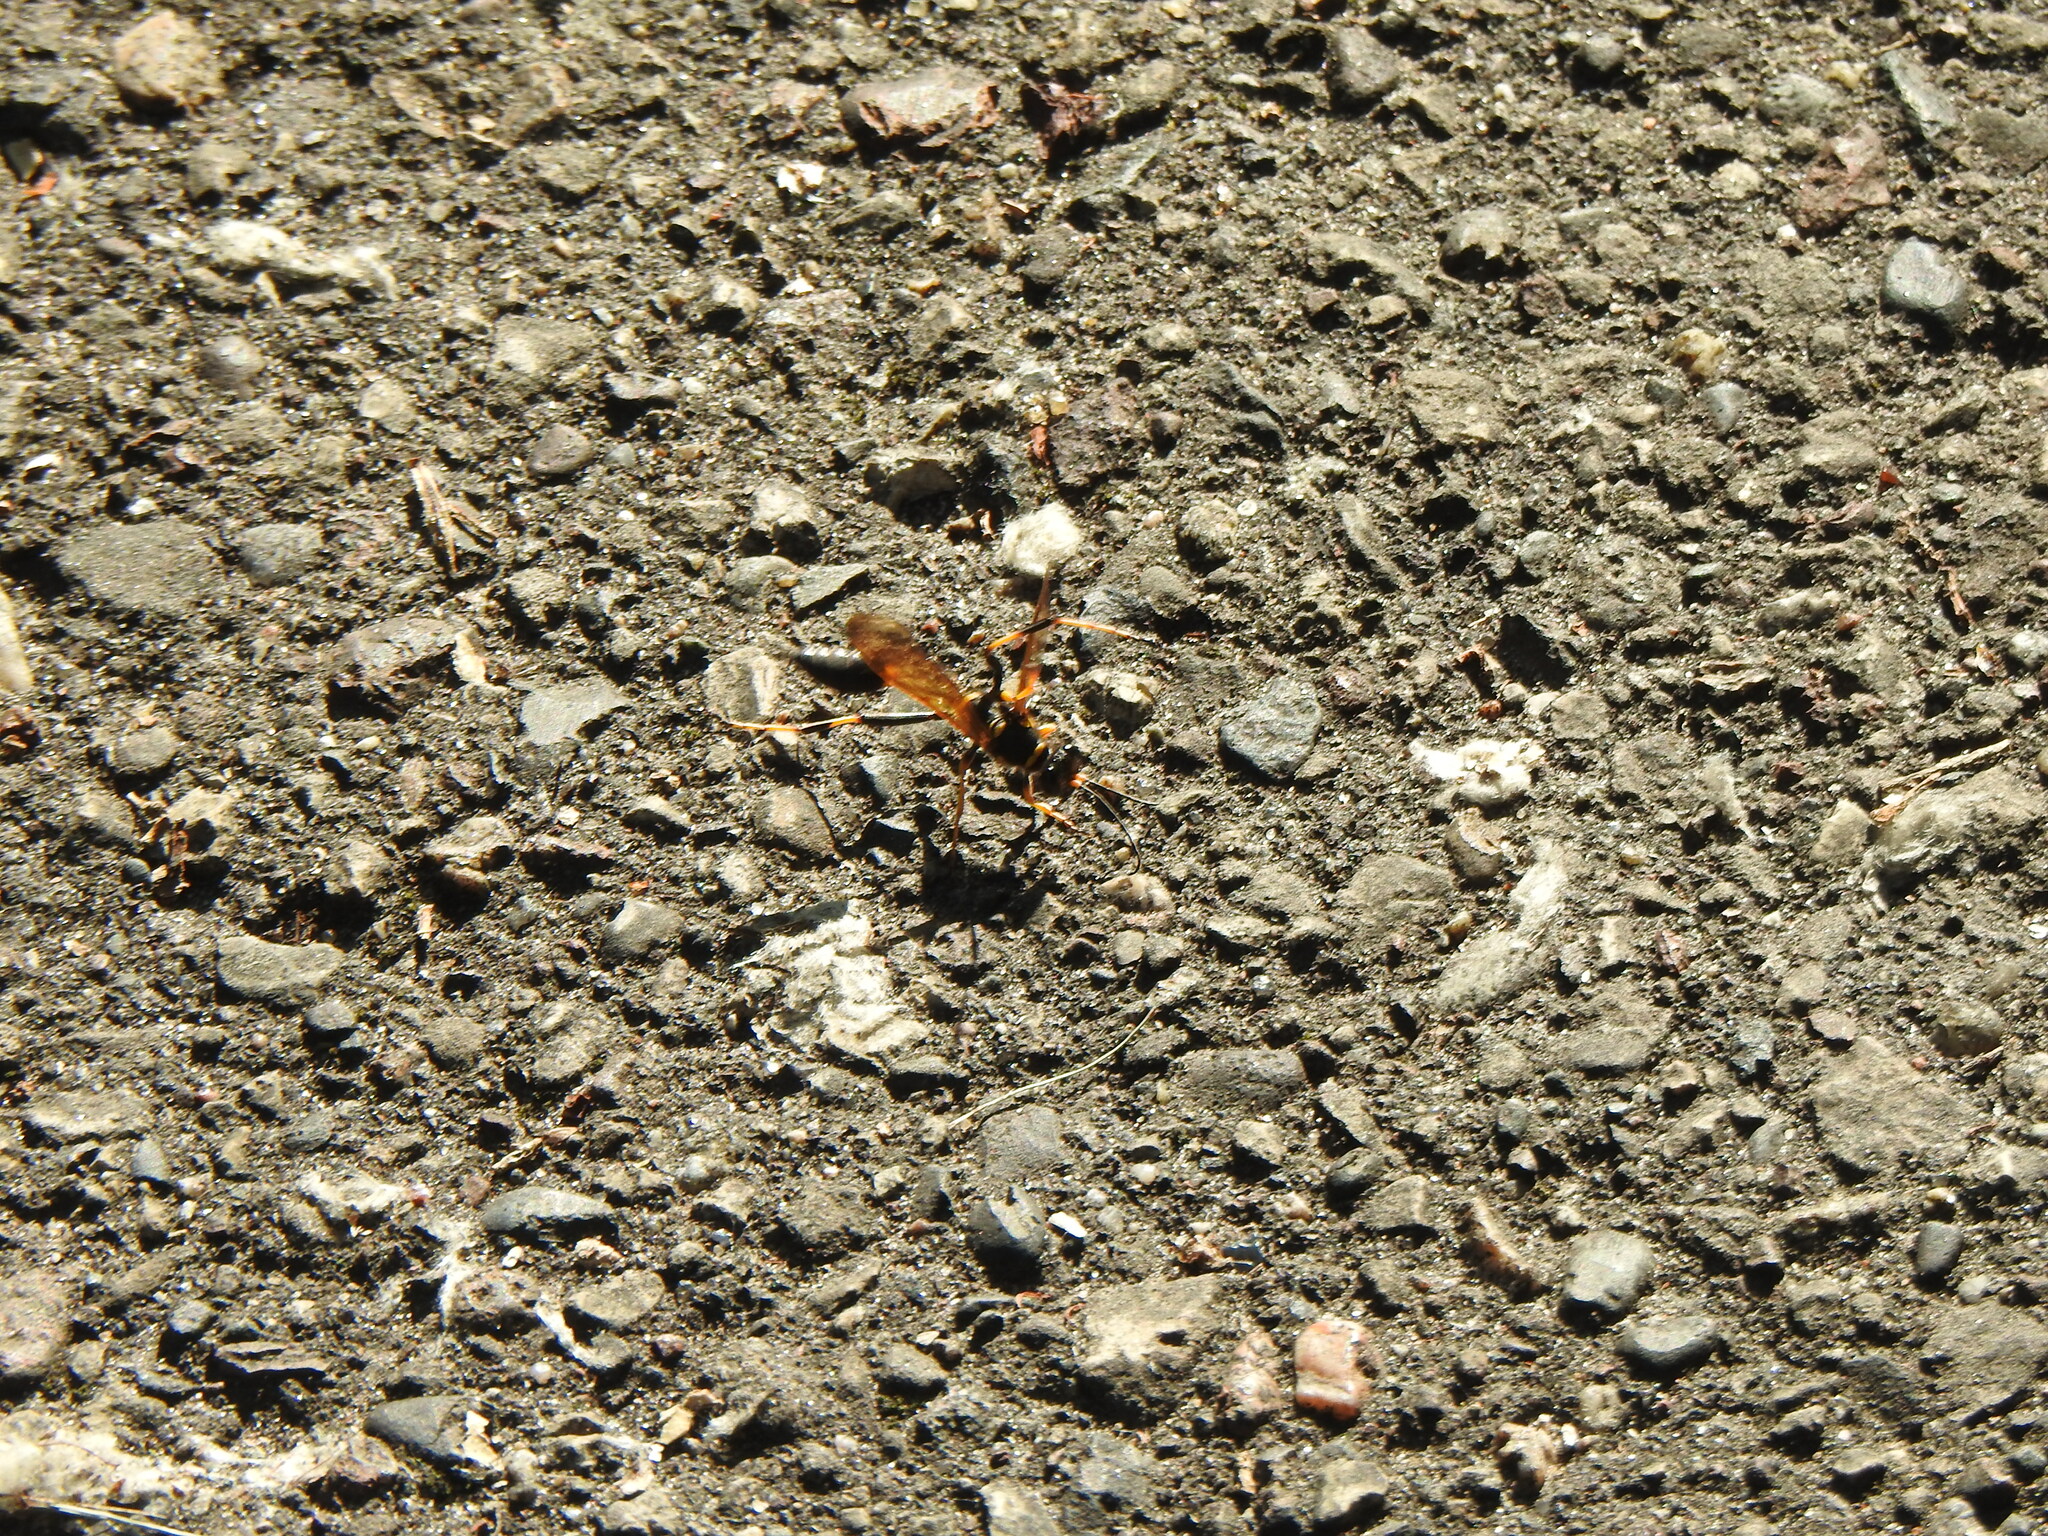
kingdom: Animalia
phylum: Arthropoda
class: Insecta
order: Hymenoptera
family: Sphecidae
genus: Sceliphron
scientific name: Sceliphron caementarium
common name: Mud dauber
